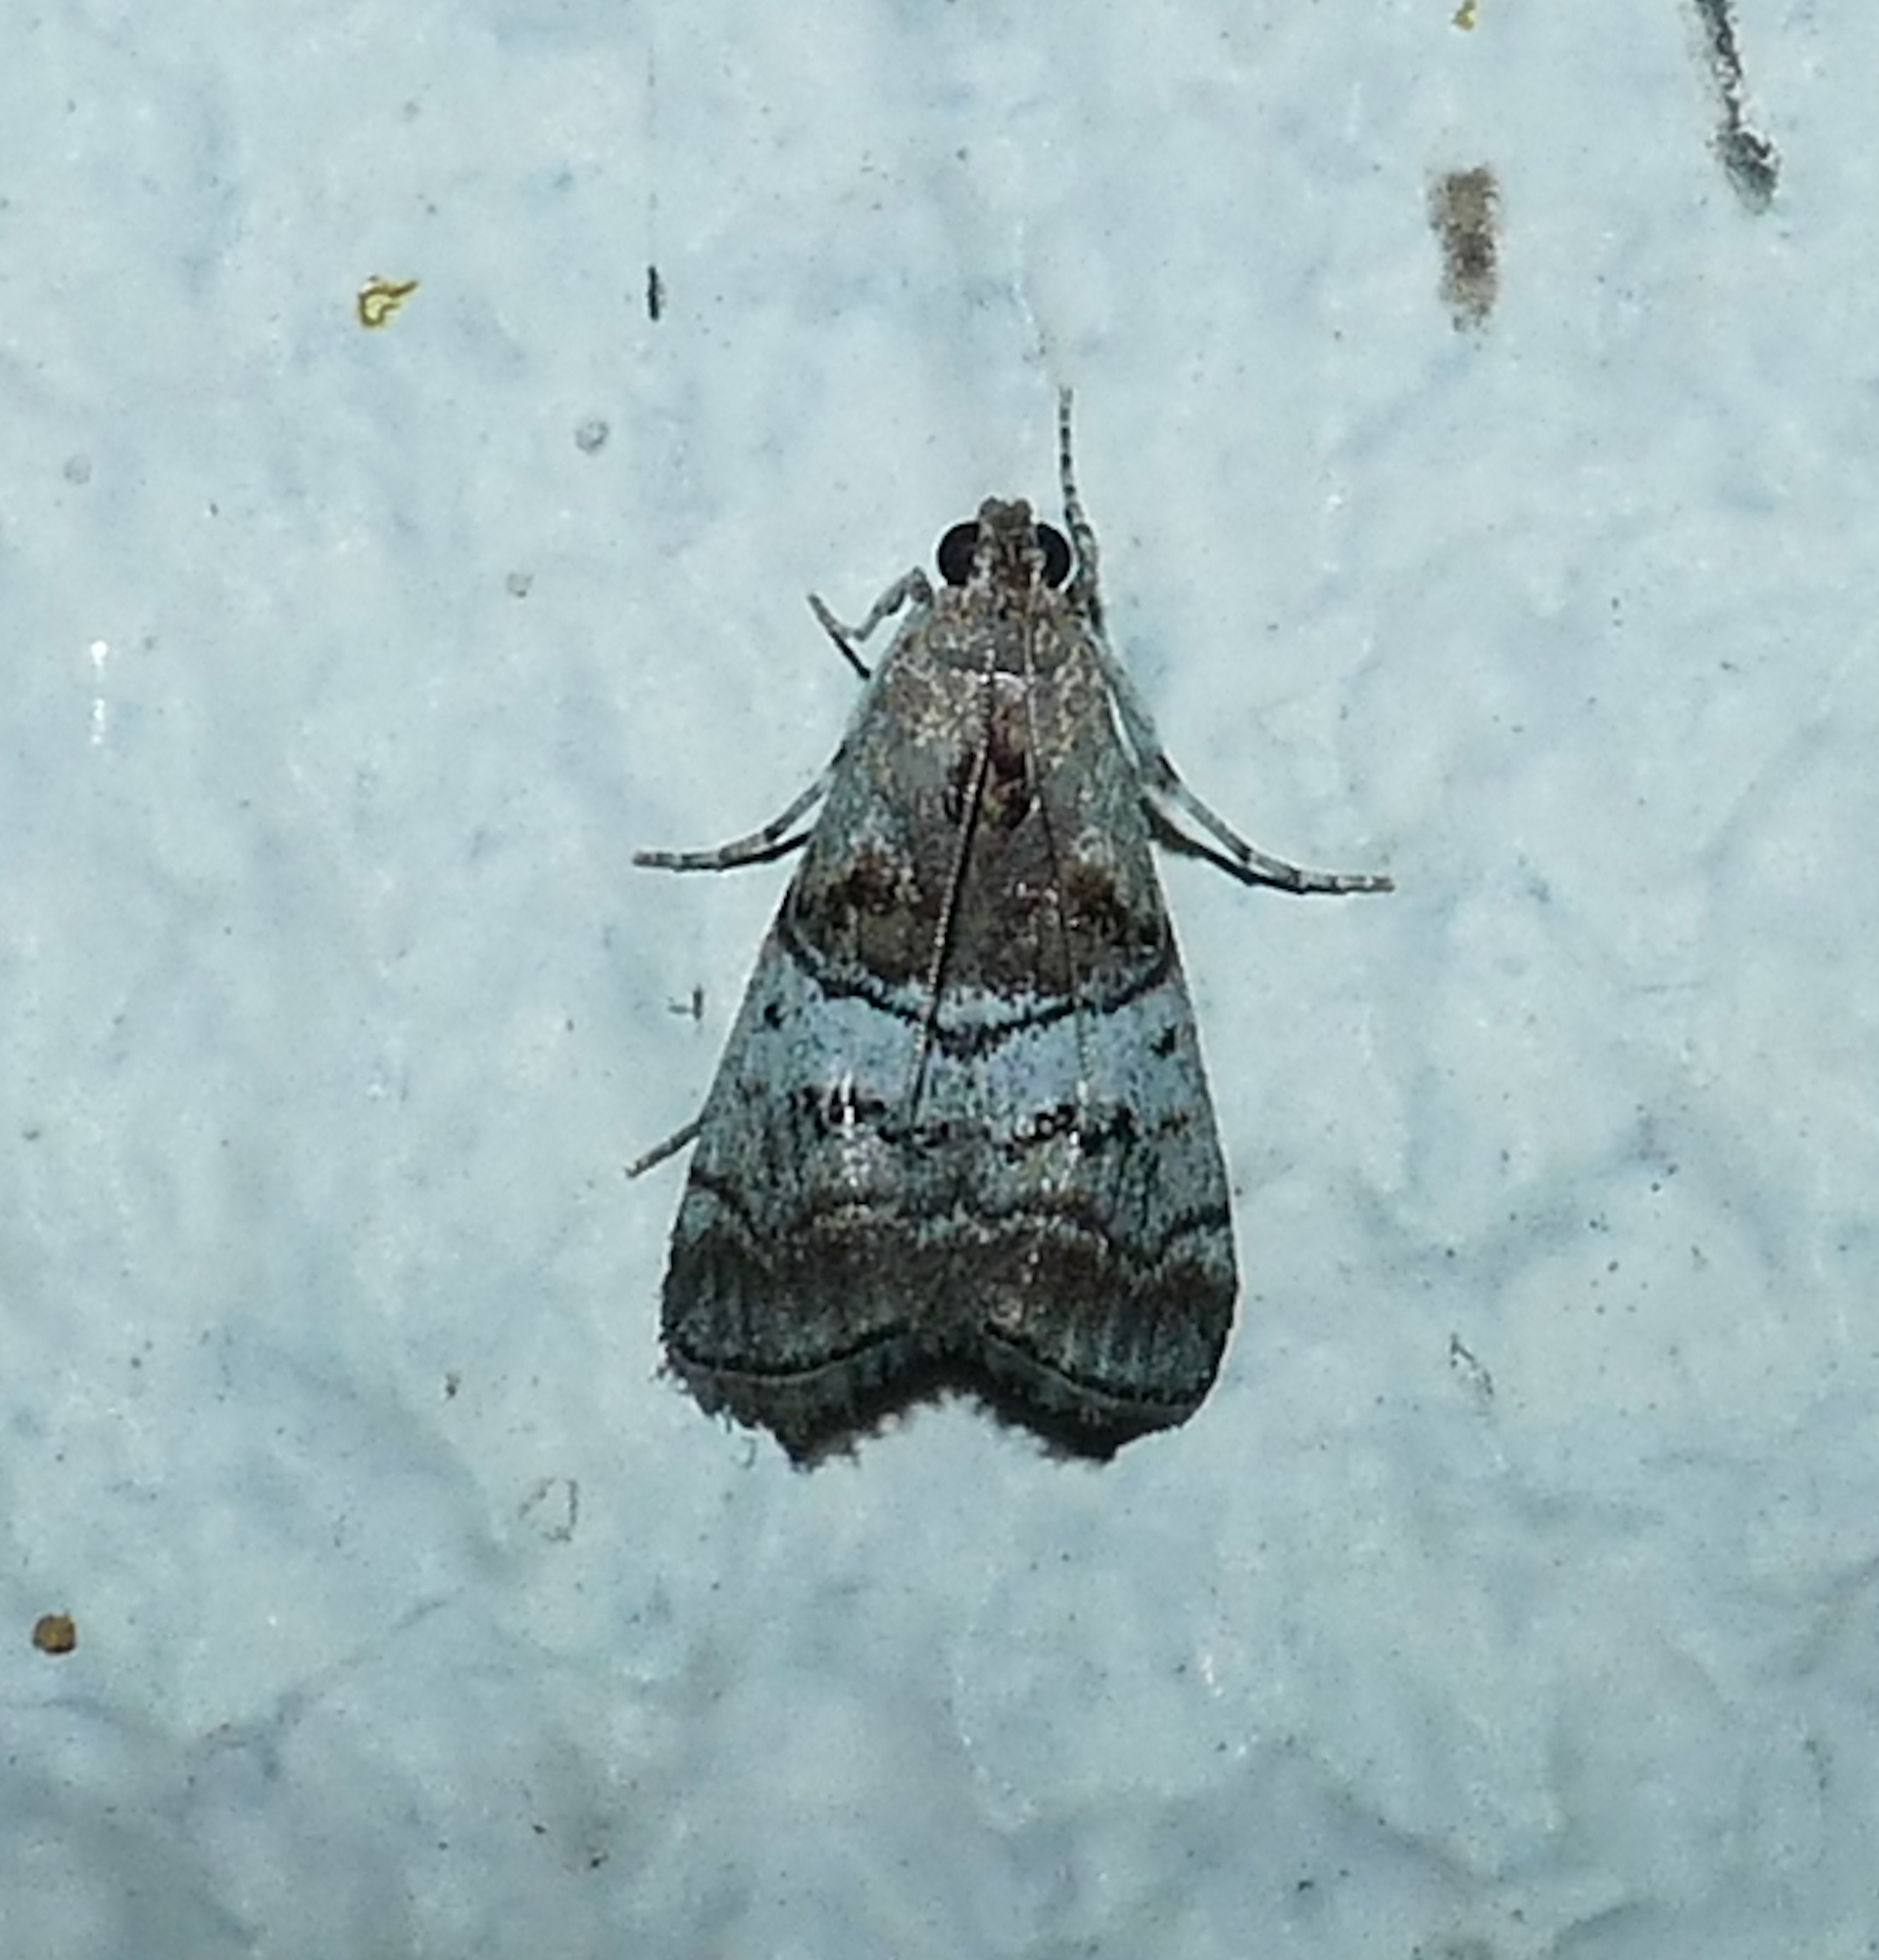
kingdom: Animalia
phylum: Arthropoda
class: Insecta
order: Lepidoptera
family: Pyralidae
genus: Pococera
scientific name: Pococera maritimalis
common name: Gray-banded pococera moth
